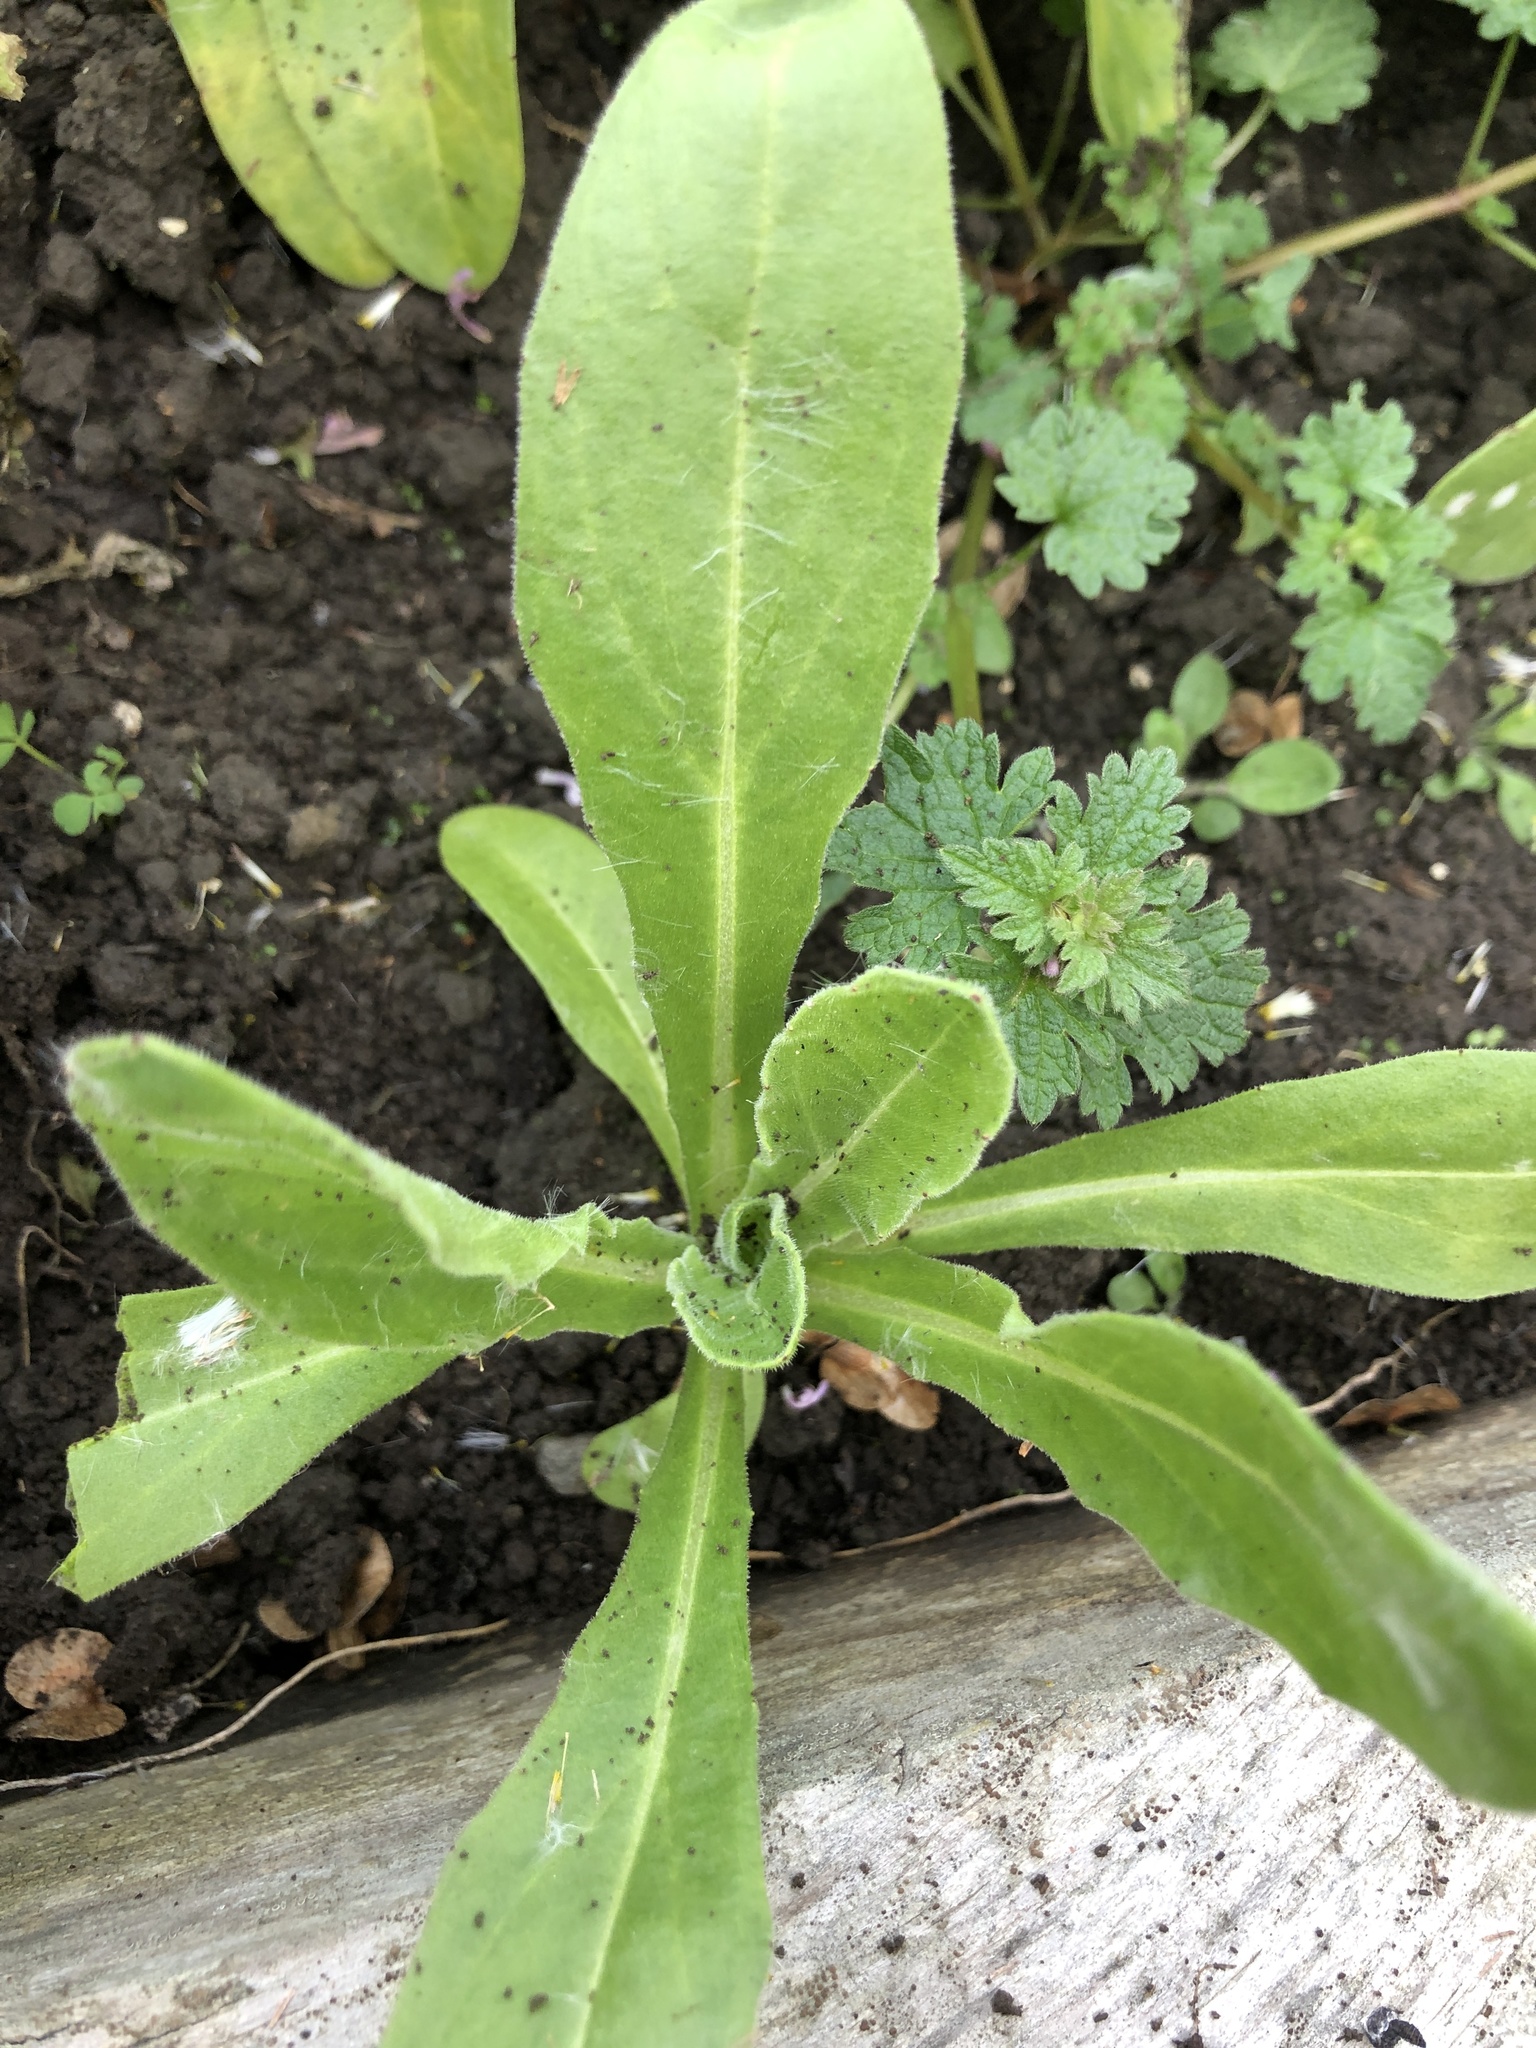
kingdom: Plantae
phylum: Tracheophyta
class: Magnoliopsida
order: Asterales
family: Asteraceae
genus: Calendula
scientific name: Calendula officinalis
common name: Pot marigold
